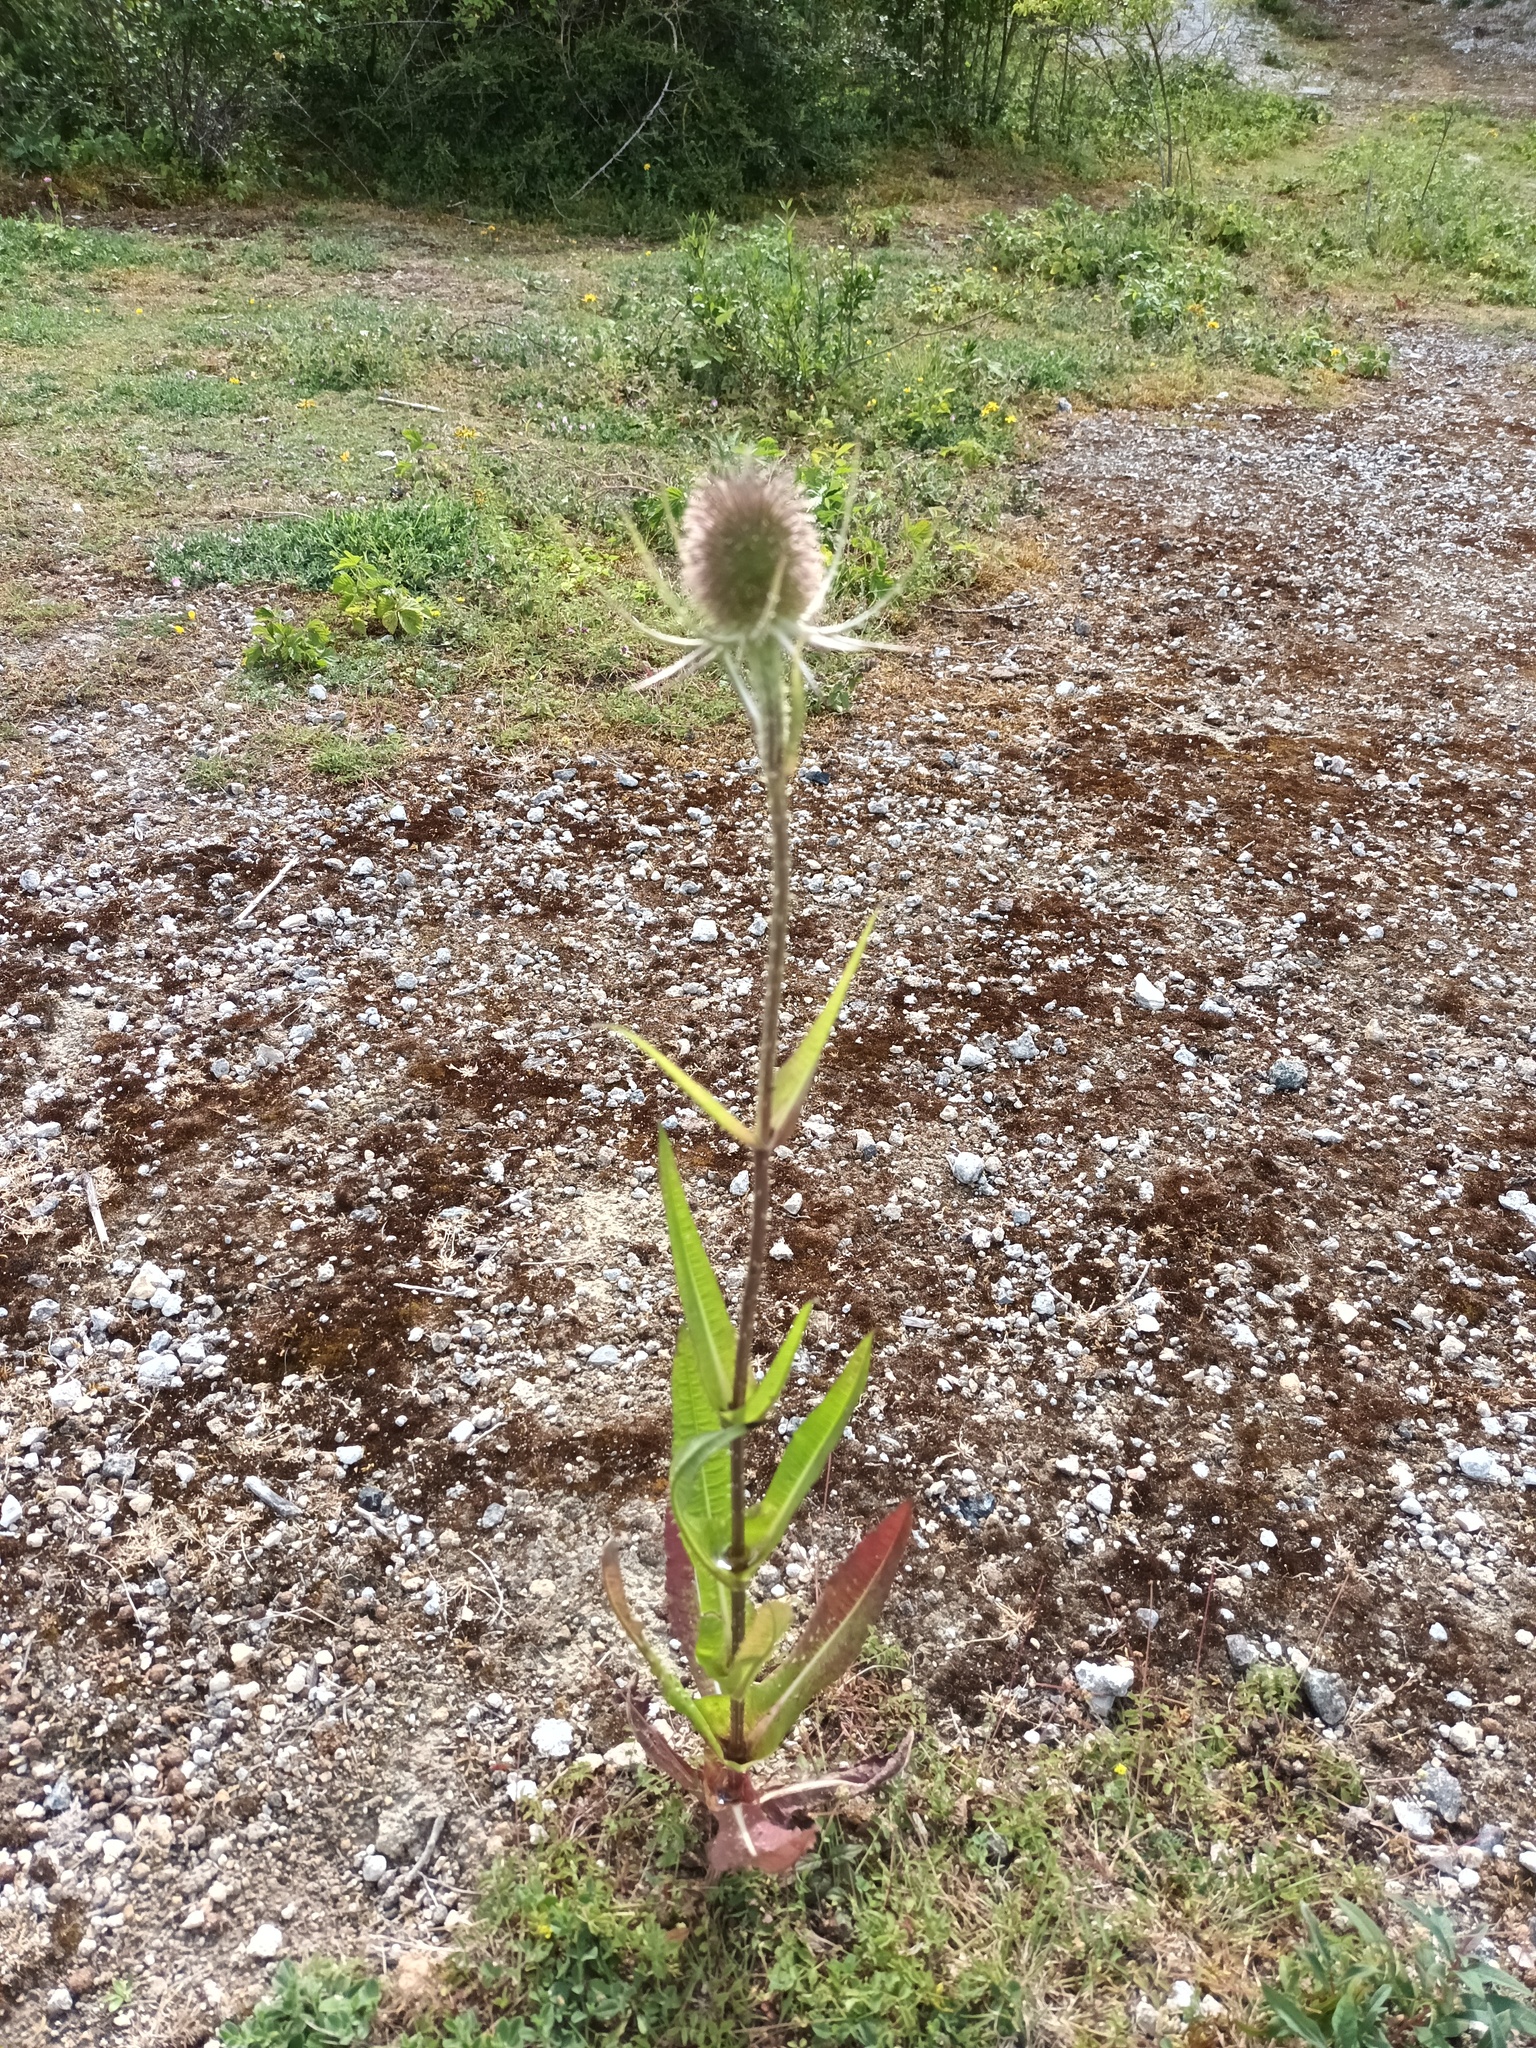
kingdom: Plantae
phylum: Tracheophyta
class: Magnoliopsida
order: Dipsacales
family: Caprifoliaceae
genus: Dipsacus
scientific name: Dipsacus fullonum
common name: Teasel
